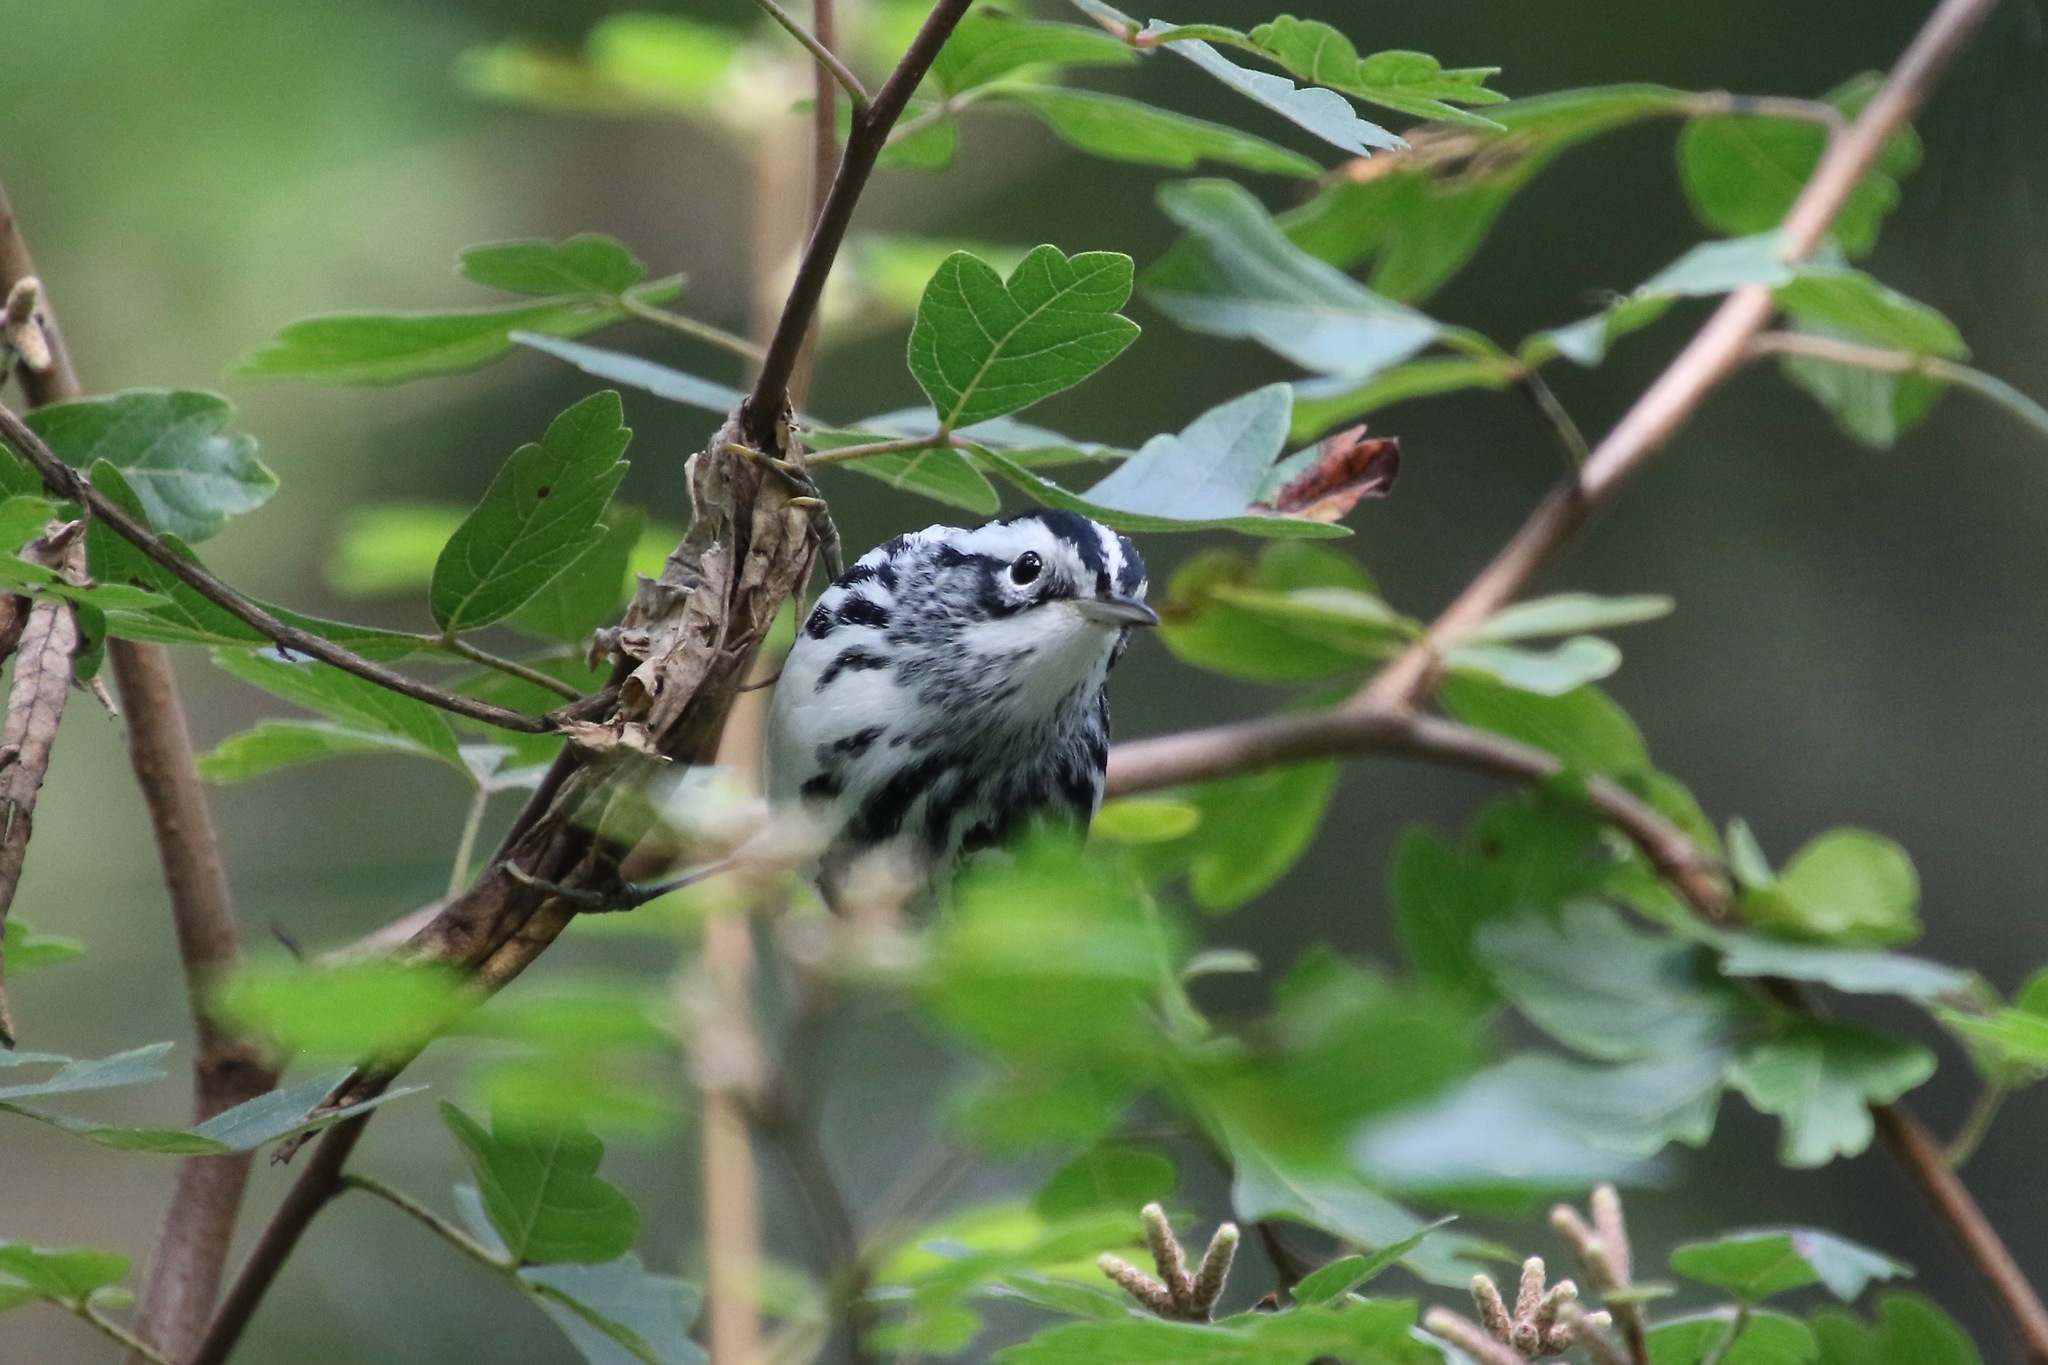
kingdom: Animalia
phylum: Chordata
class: Aves
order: Passeriformes
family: Parulidae
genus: Mniotilta
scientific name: Mniotilta varia
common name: Black-and-white warbler
